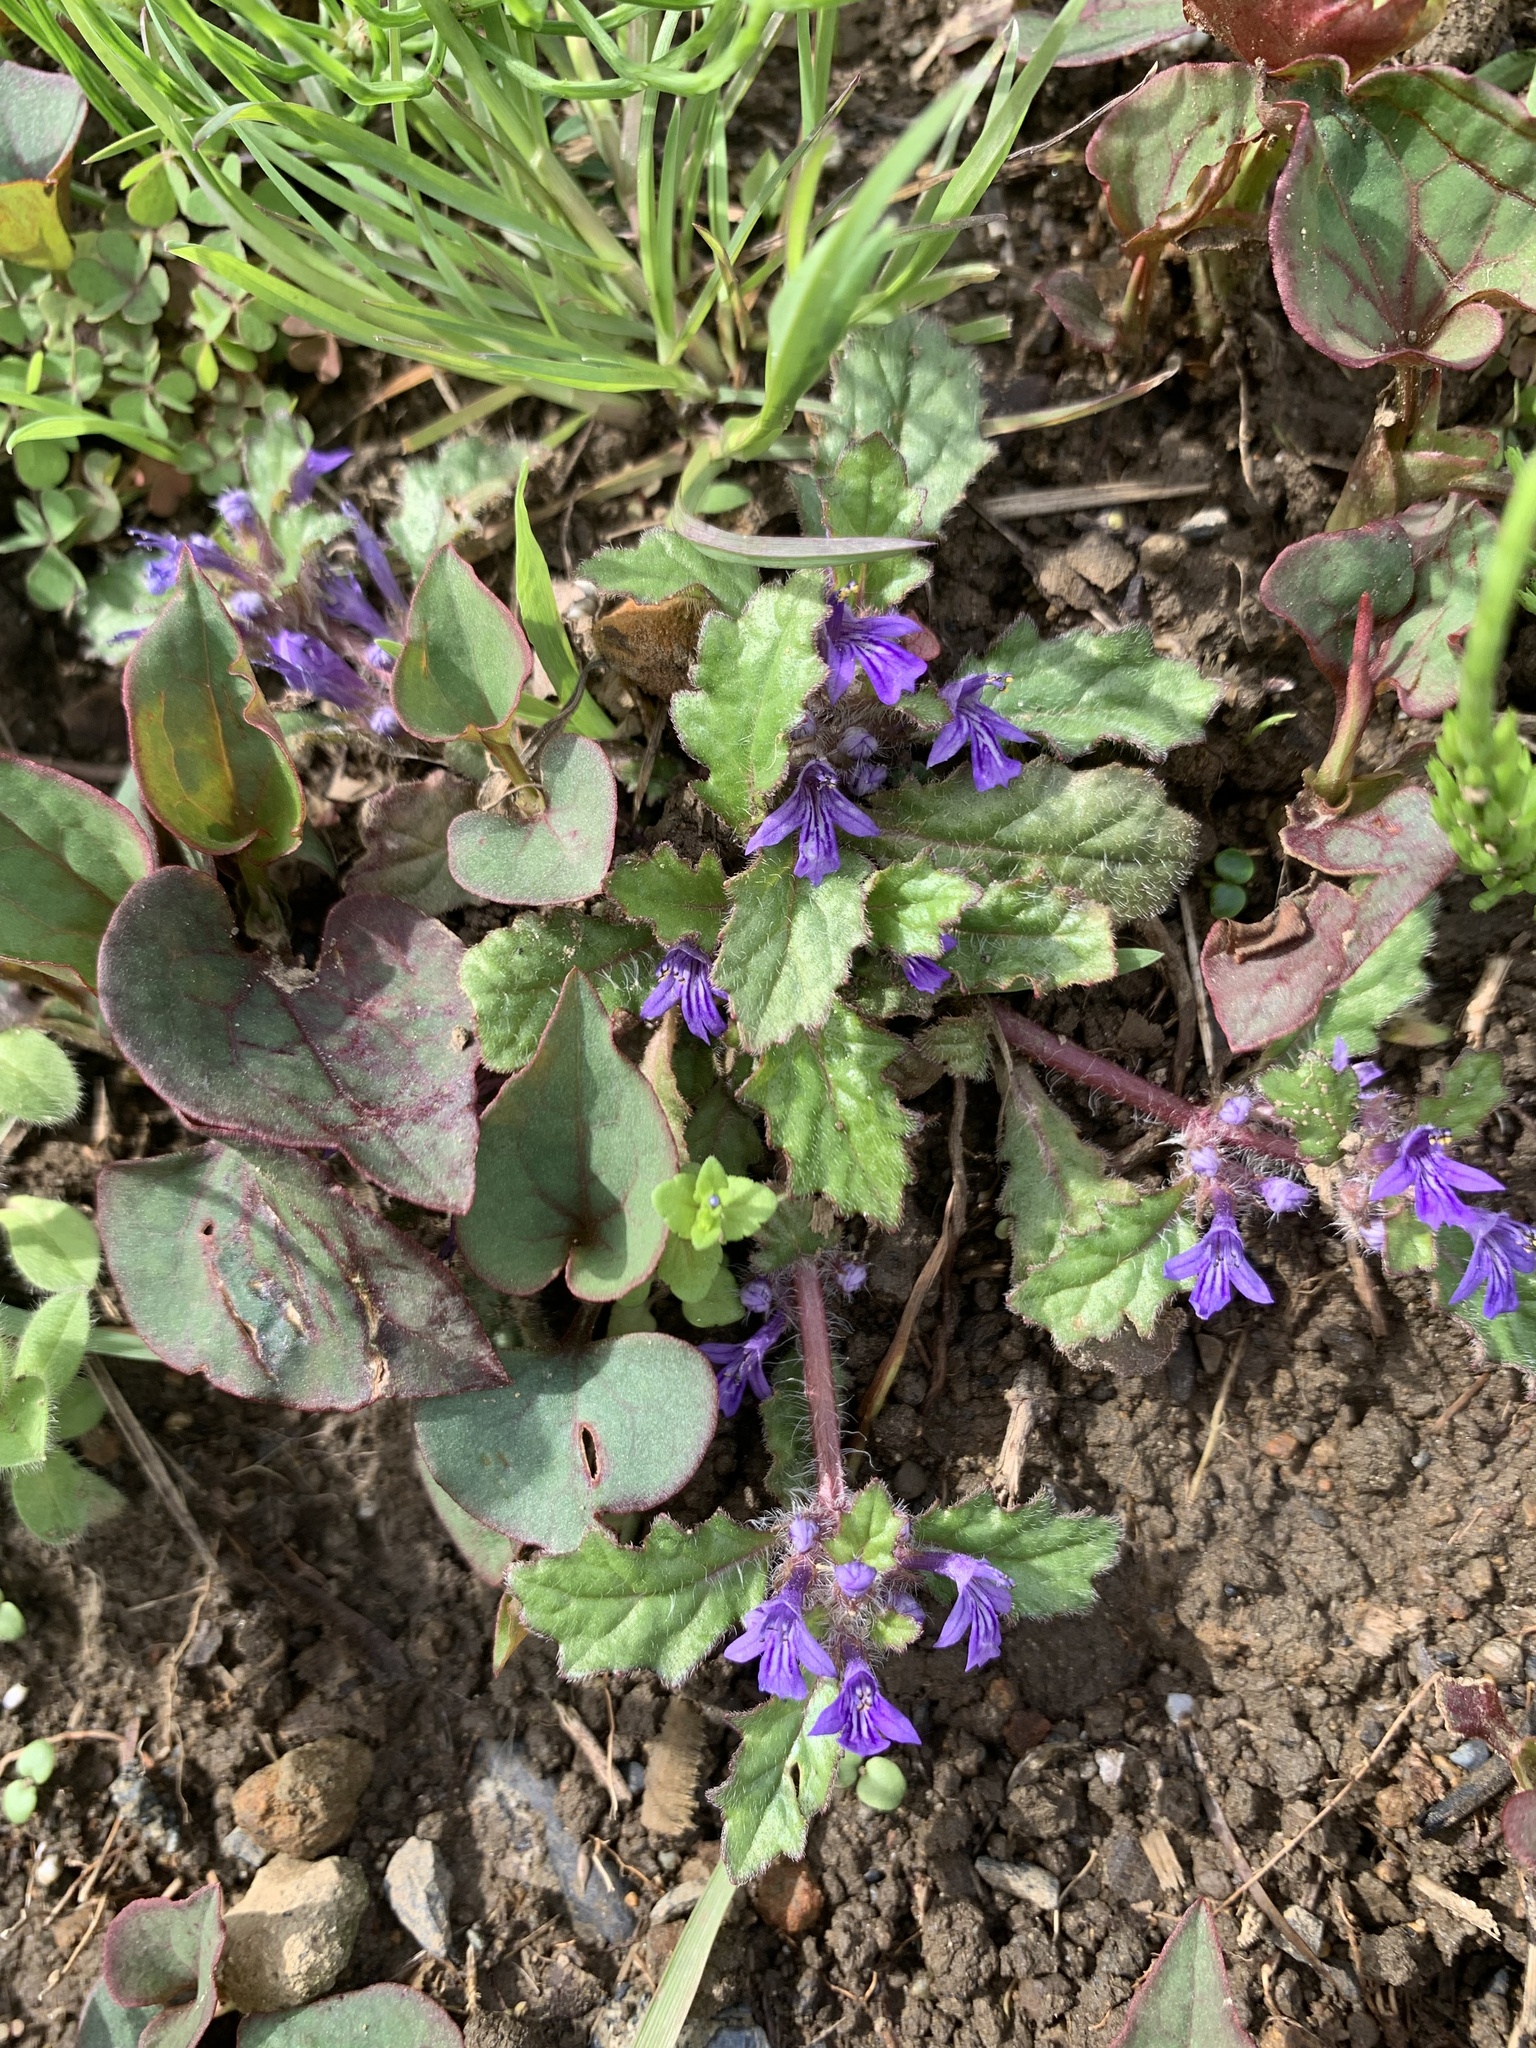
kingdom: Plantae
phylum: Tracheophyta
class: Magnoliopsida
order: Lamiales
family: Lamiaceae
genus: Ajuga
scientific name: Ajuga decumbens
